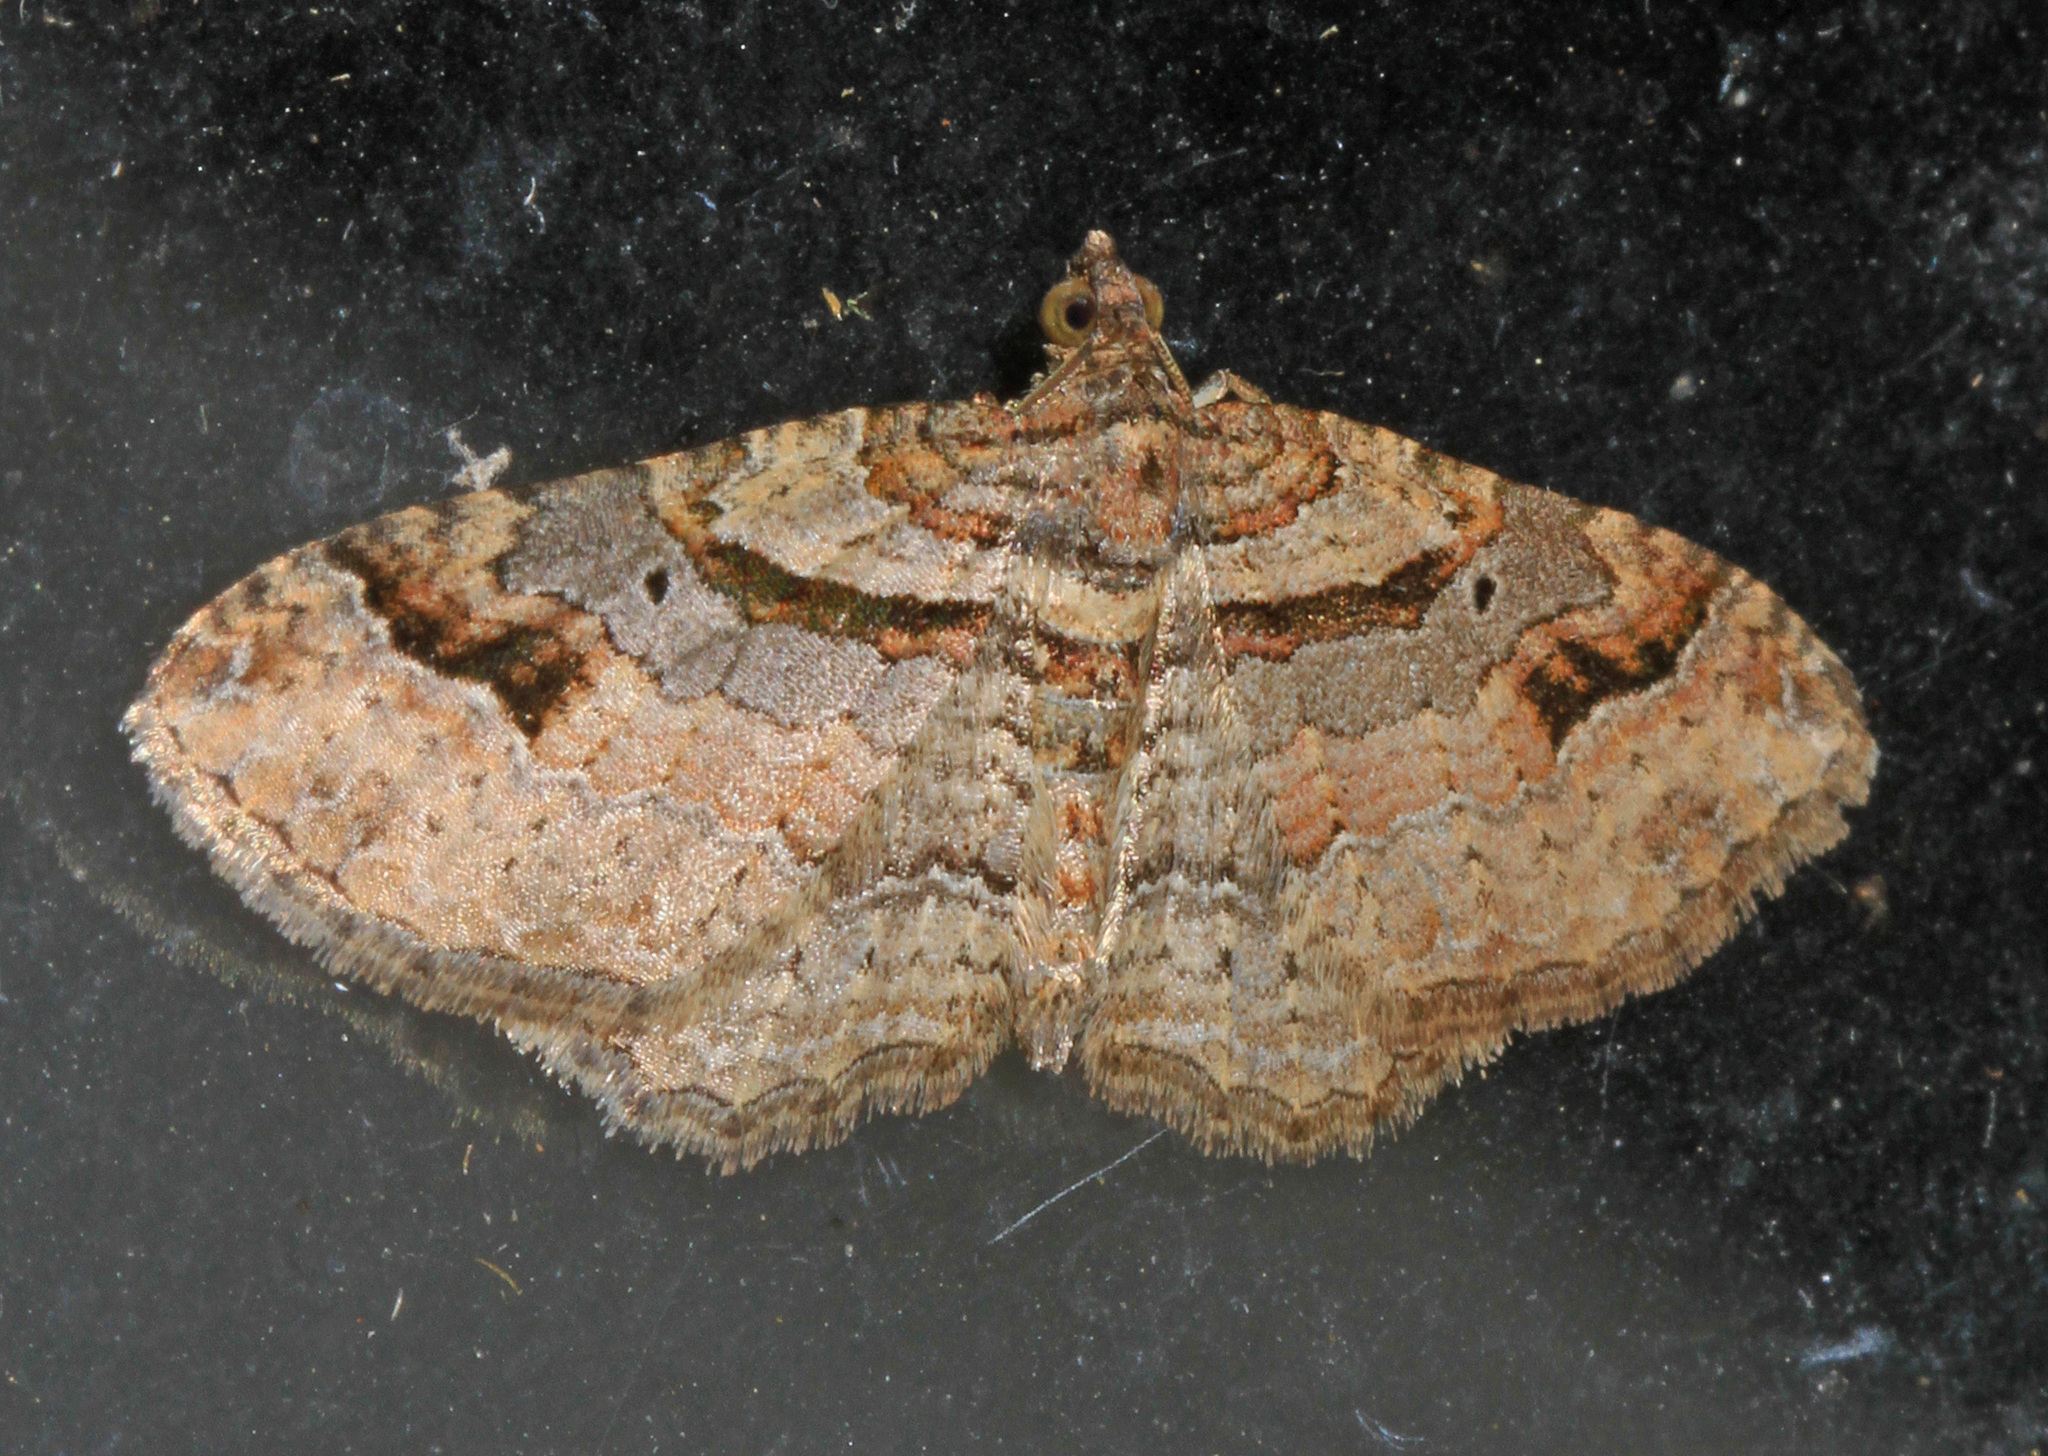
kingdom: Animalia
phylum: Arthropoda
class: Insecta
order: Lepidoptera
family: Geometridae
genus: Costaconvexa
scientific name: Costaconvexa centrostrigaria
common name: Bent-line carpet
